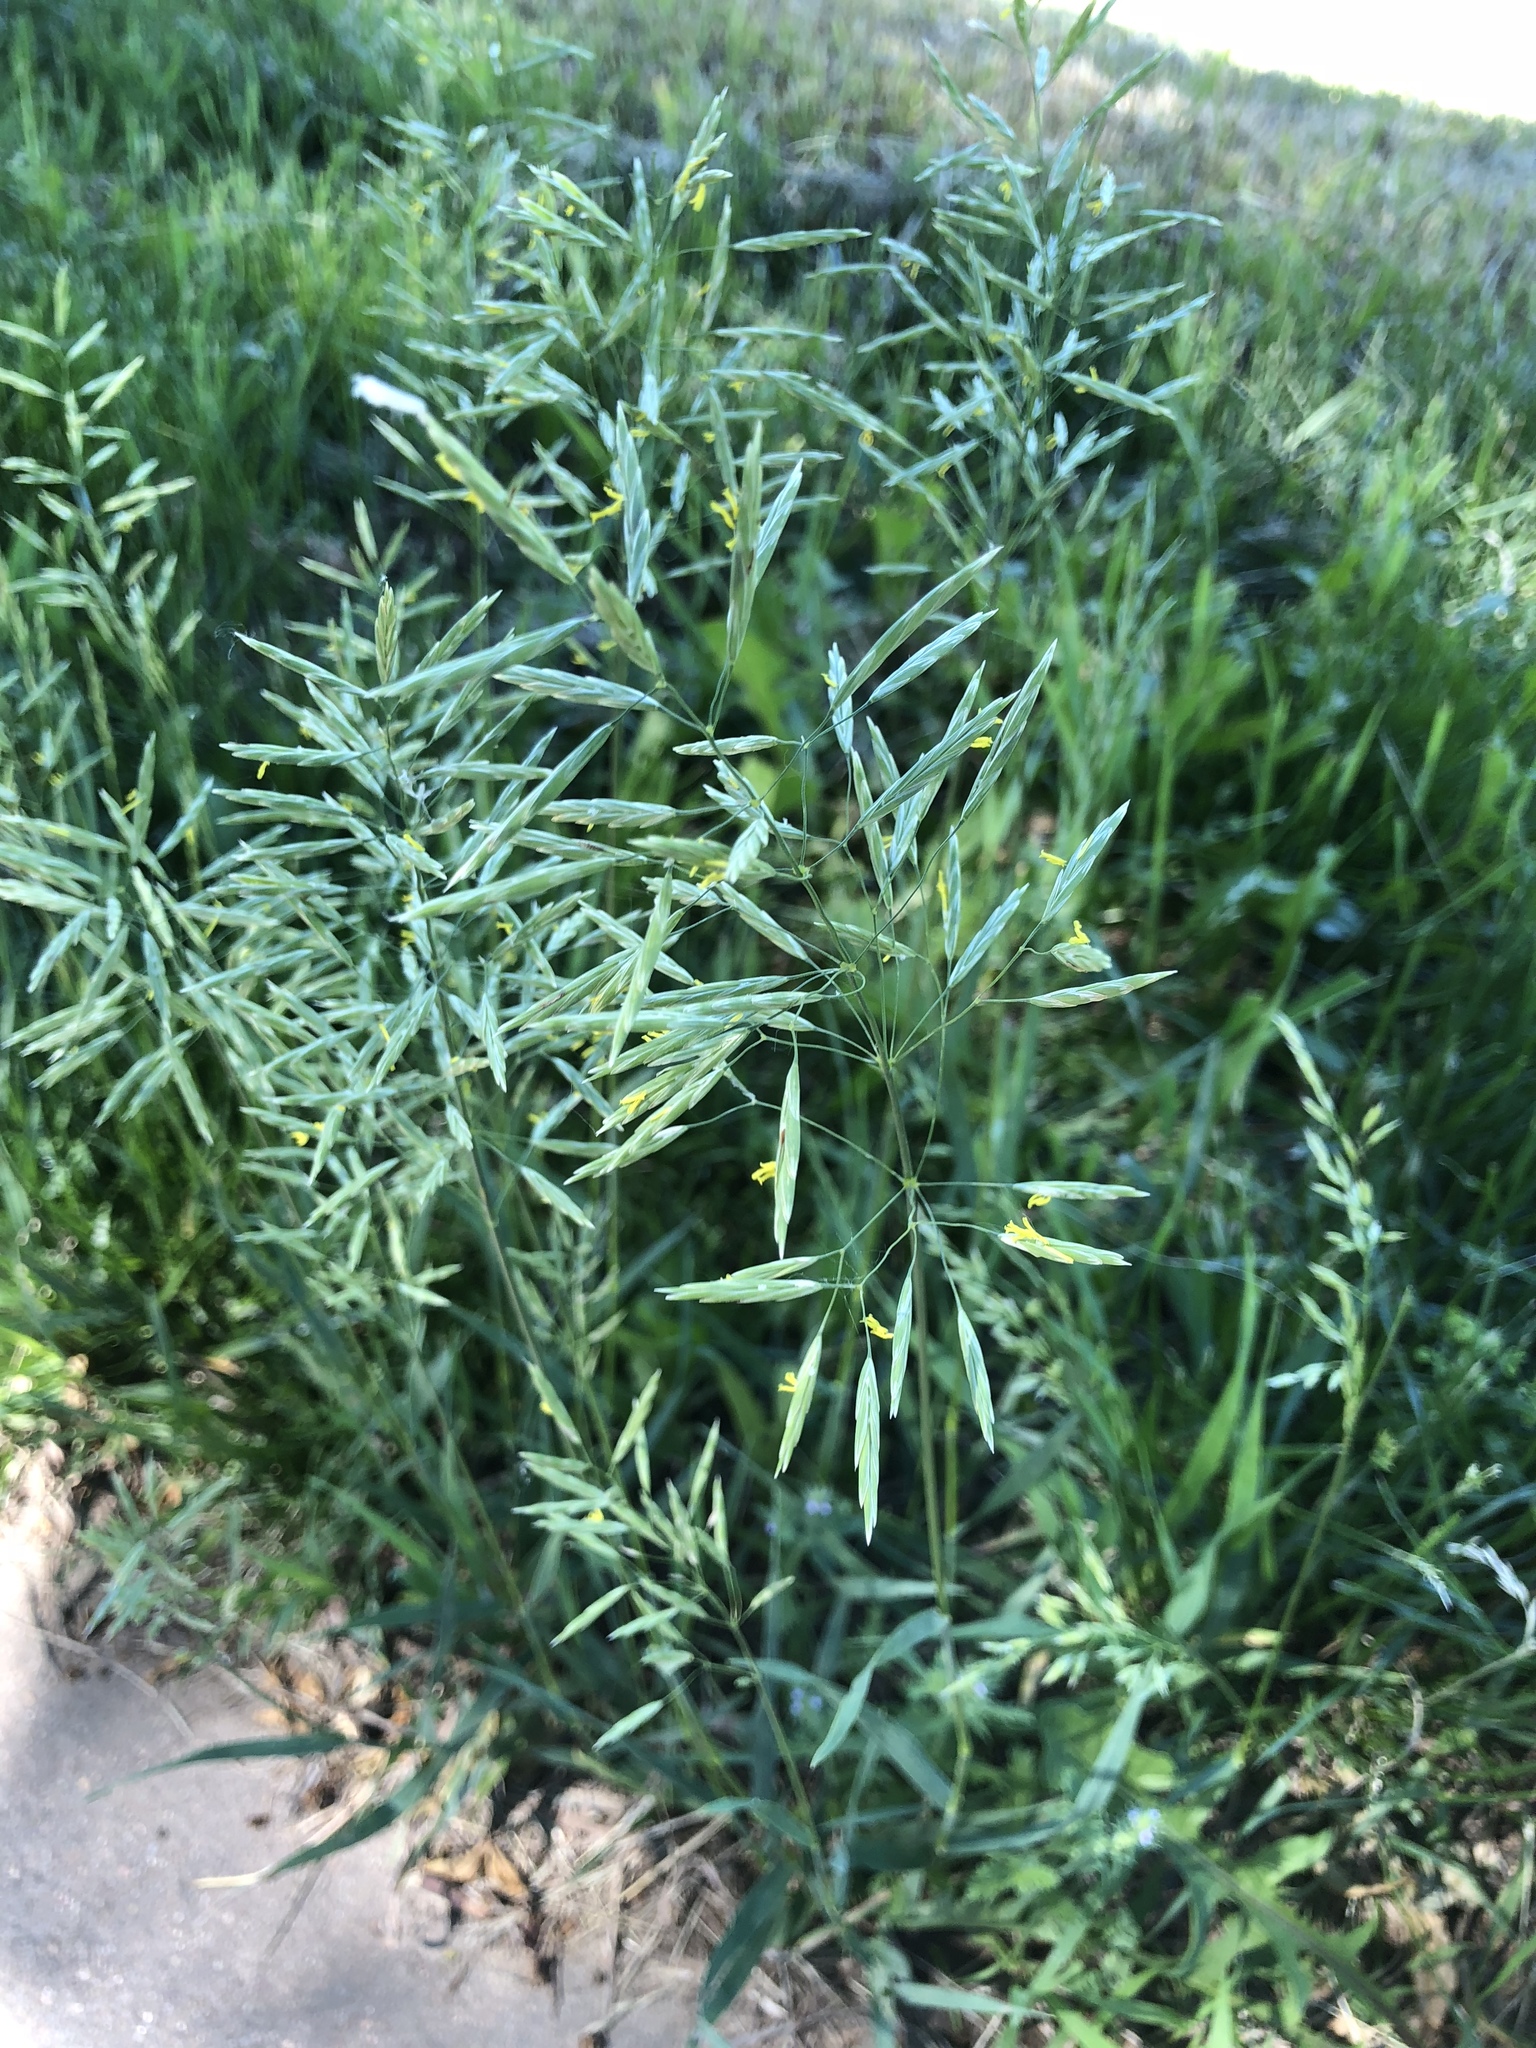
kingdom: Plantae
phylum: Tracheophyta
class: Liliopsida
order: Poales
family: Poaceae
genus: Bromus
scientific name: Bromus inermis
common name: Smooth brome
